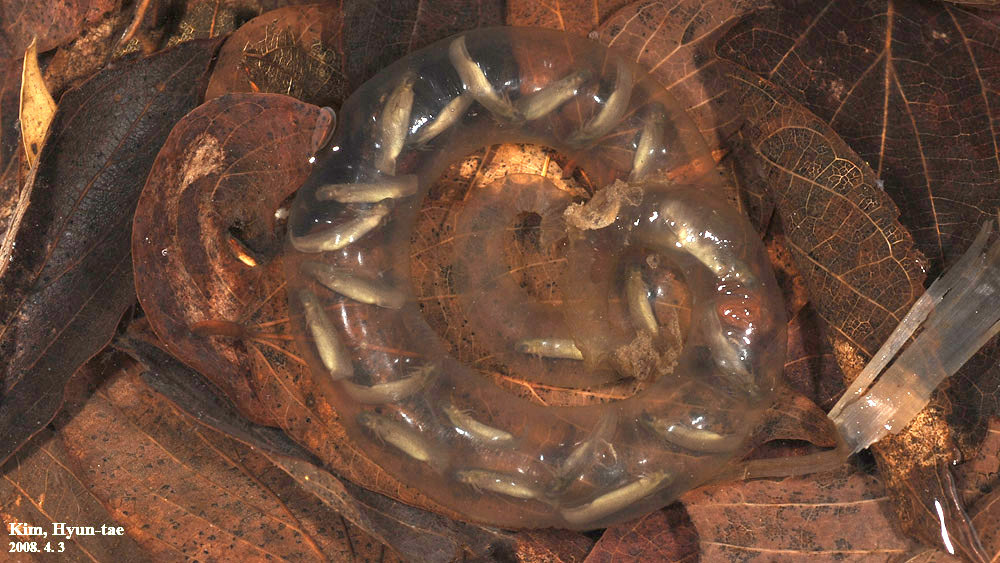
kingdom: Animalia
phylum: Chordata
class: Amphibia
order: Caudata
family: Hynobiidae
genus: Hynobius
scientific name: Hynobius leechii
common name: Gensan salamander
